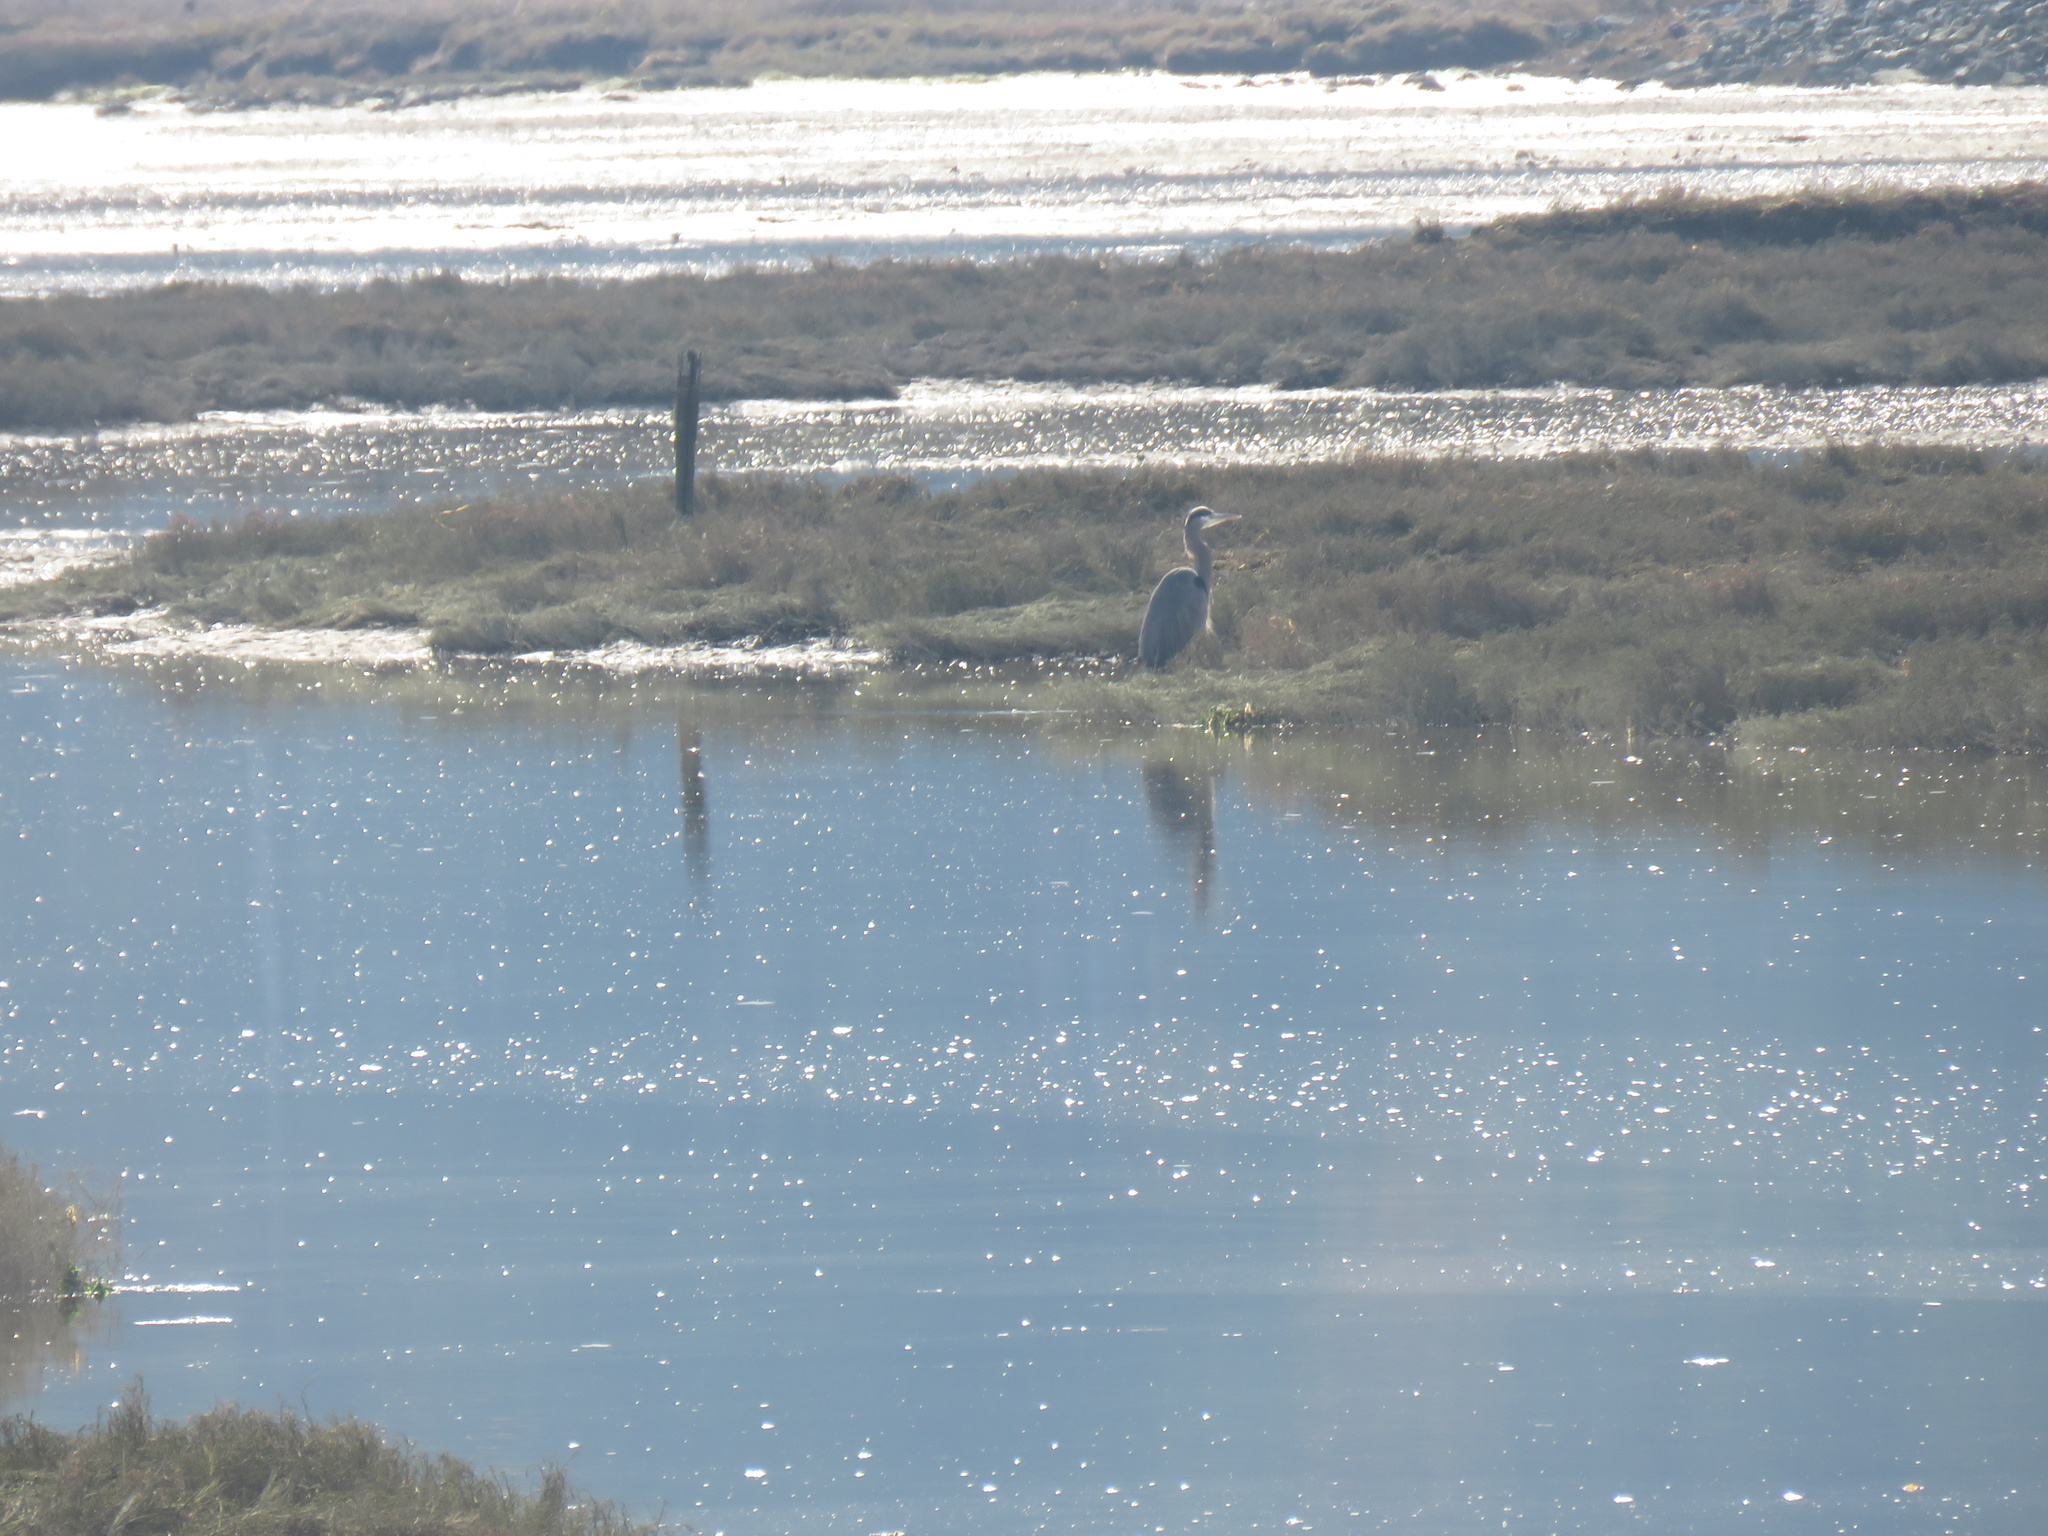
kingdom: Animalia
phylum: Chordata
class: Aves
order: Pelecaniformes
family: Ardeidae
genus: Ardea
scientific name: Ardea herodias
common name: Great blue heron
